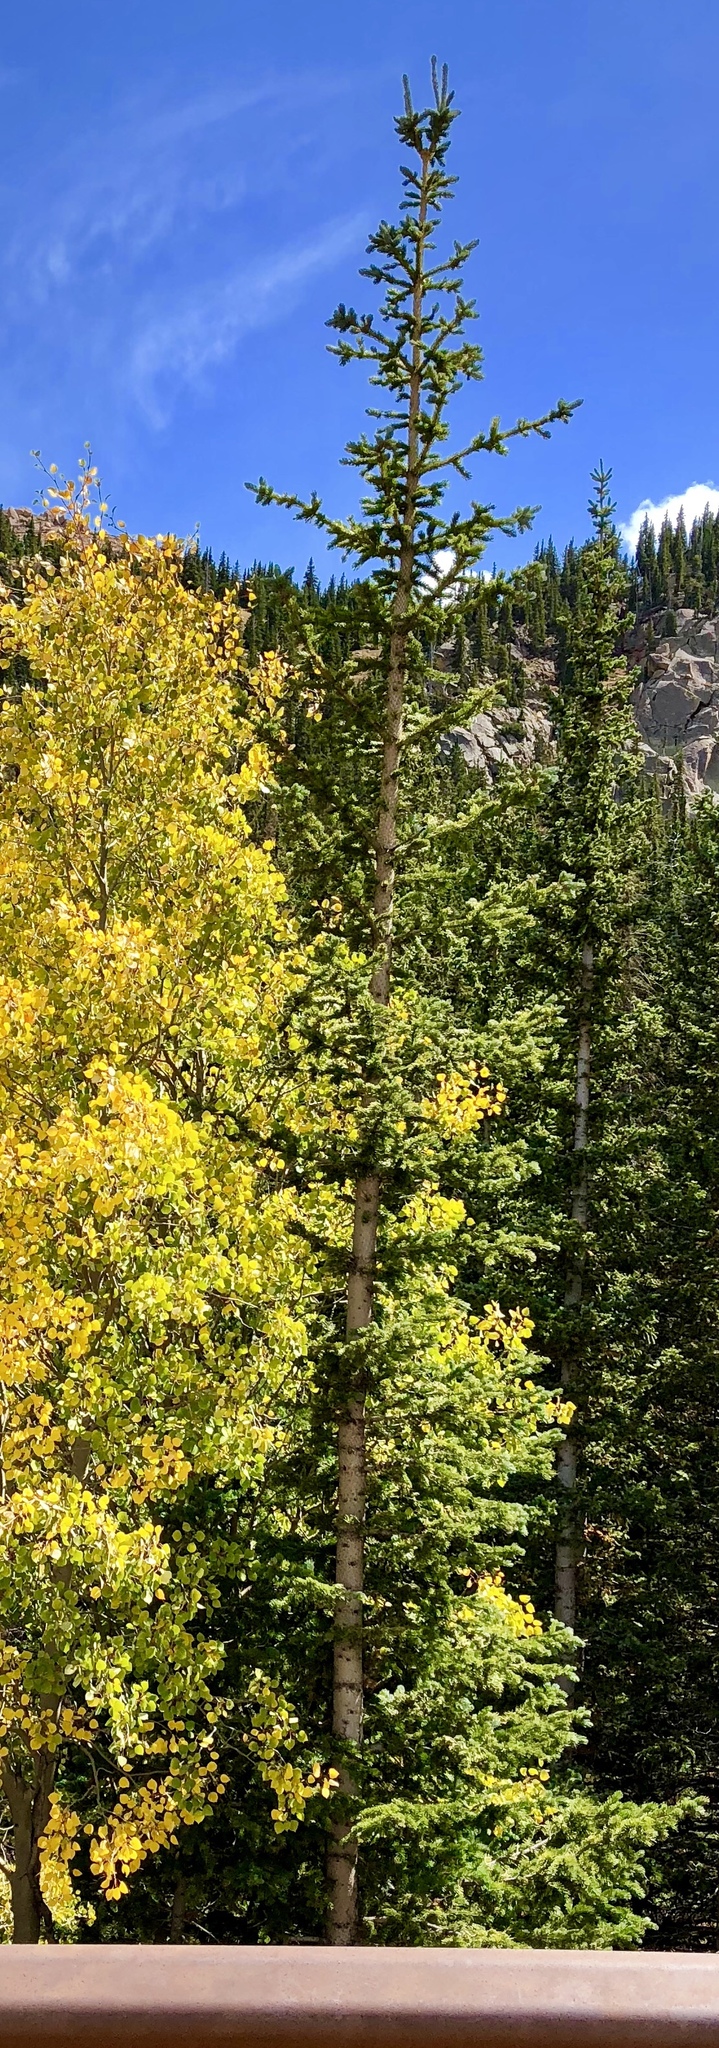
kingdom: Plantae
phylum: Tracheophyta
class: Pinopsida
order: Pinales
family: Pinaceae
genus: Picea
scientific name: Picea pungens
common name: Colorado spruce
